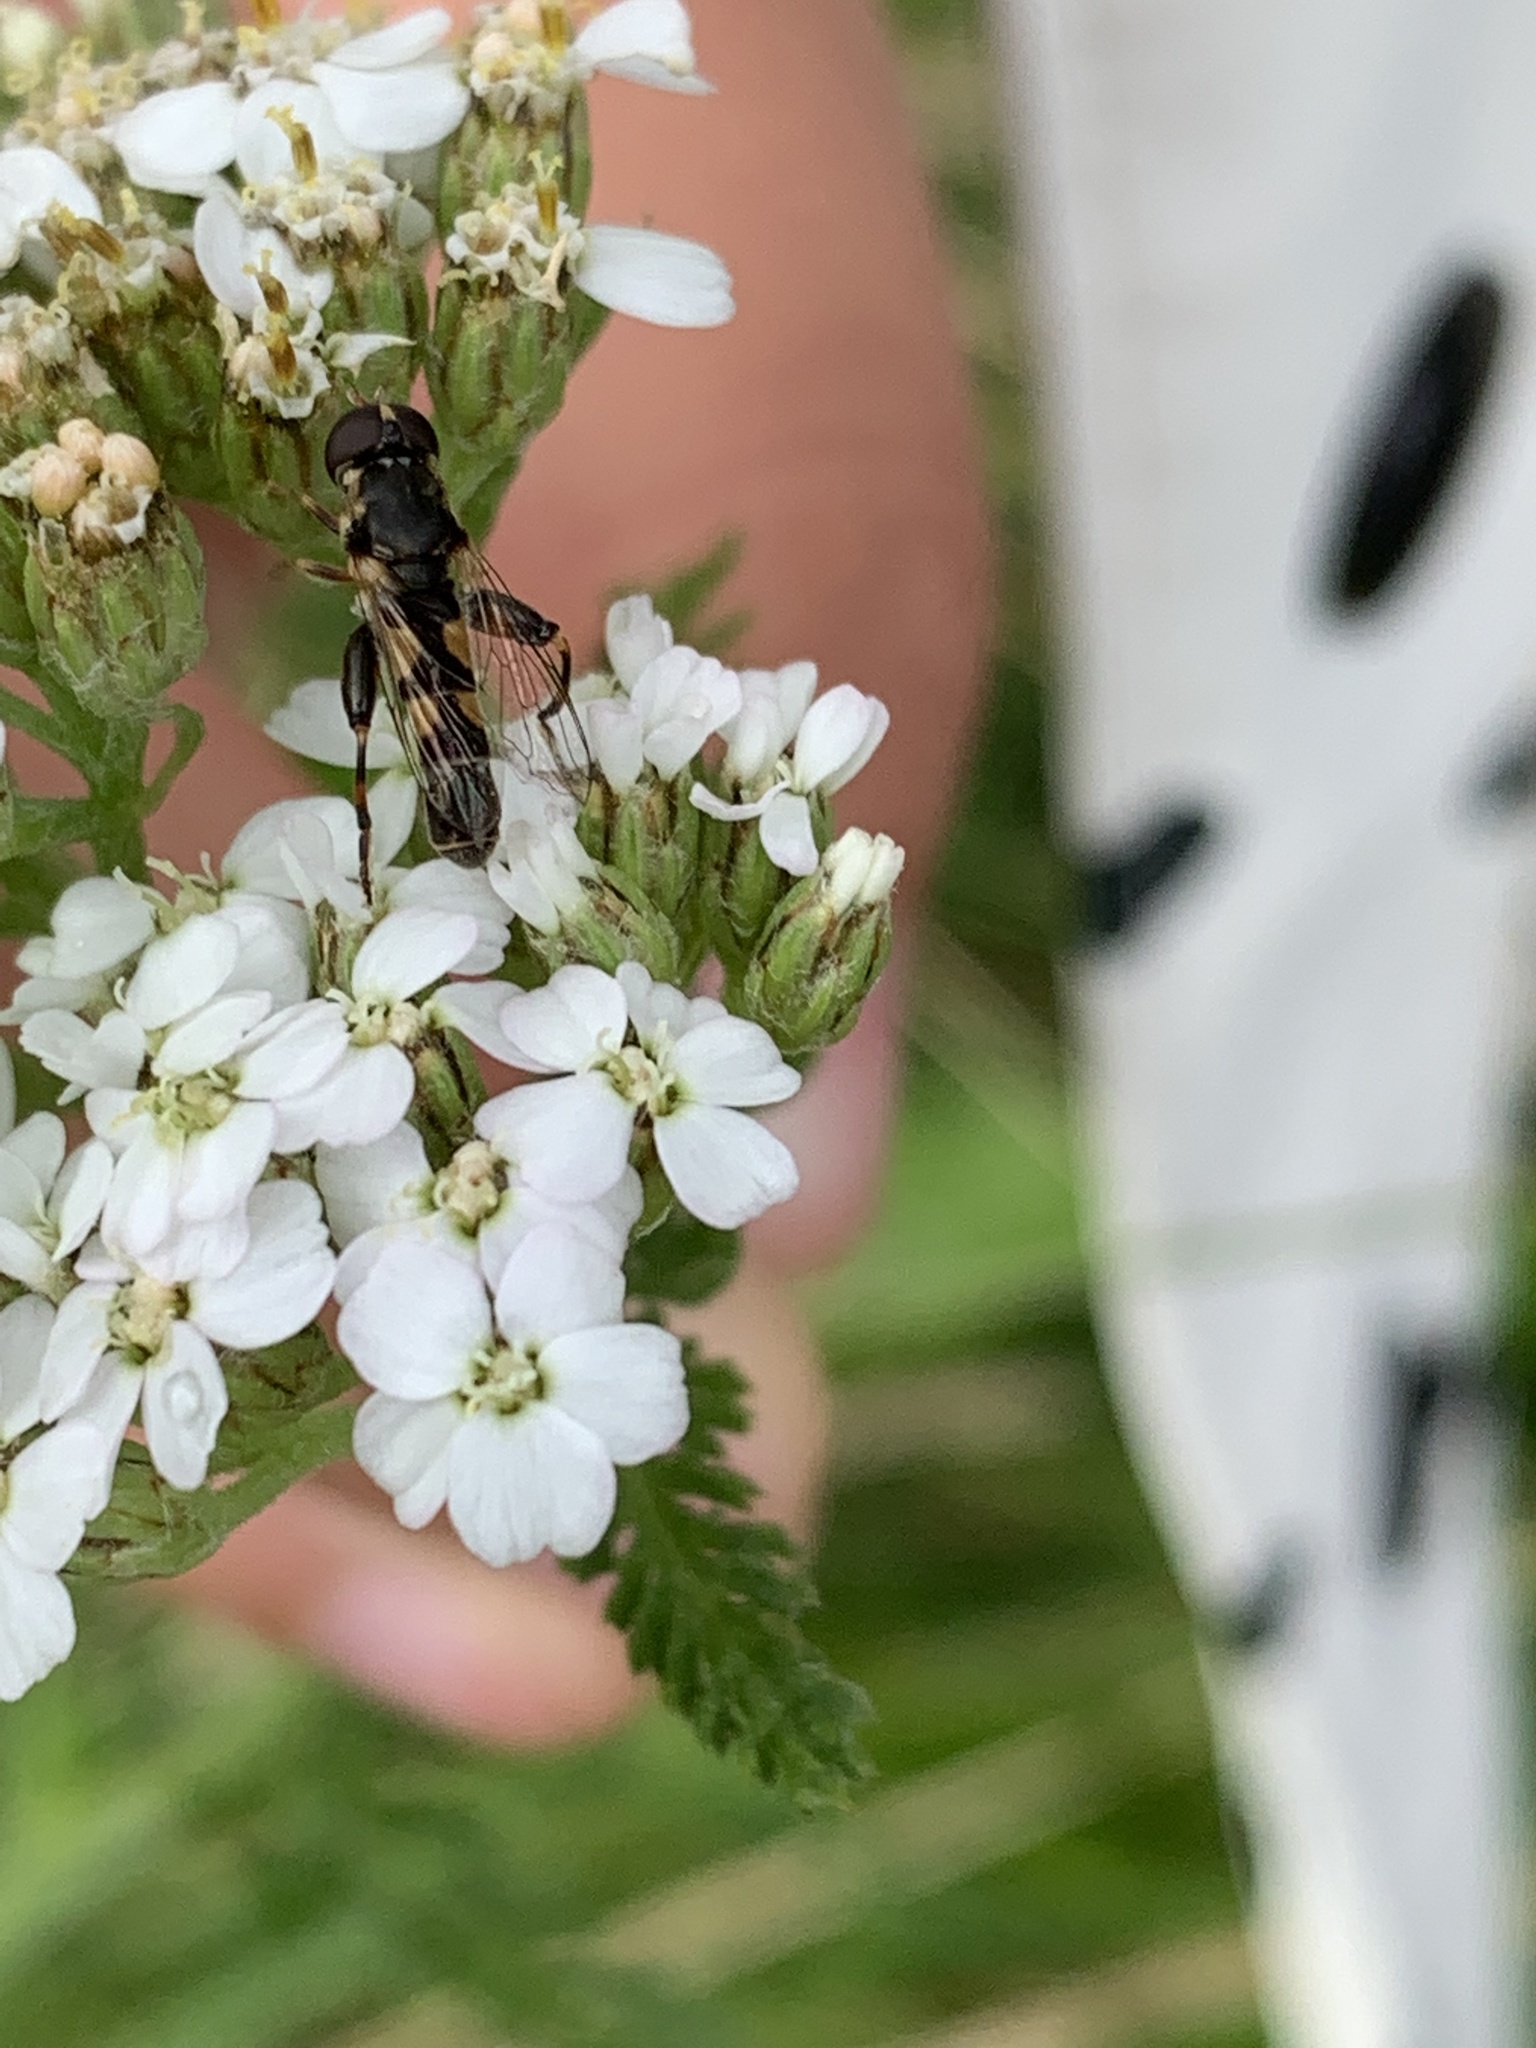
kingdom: Animalia
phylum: Arthropoda
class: Insecta
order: Diptera
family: Syrphidae
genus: Syritta
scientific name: Syritta pipiens
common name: Hover fly
